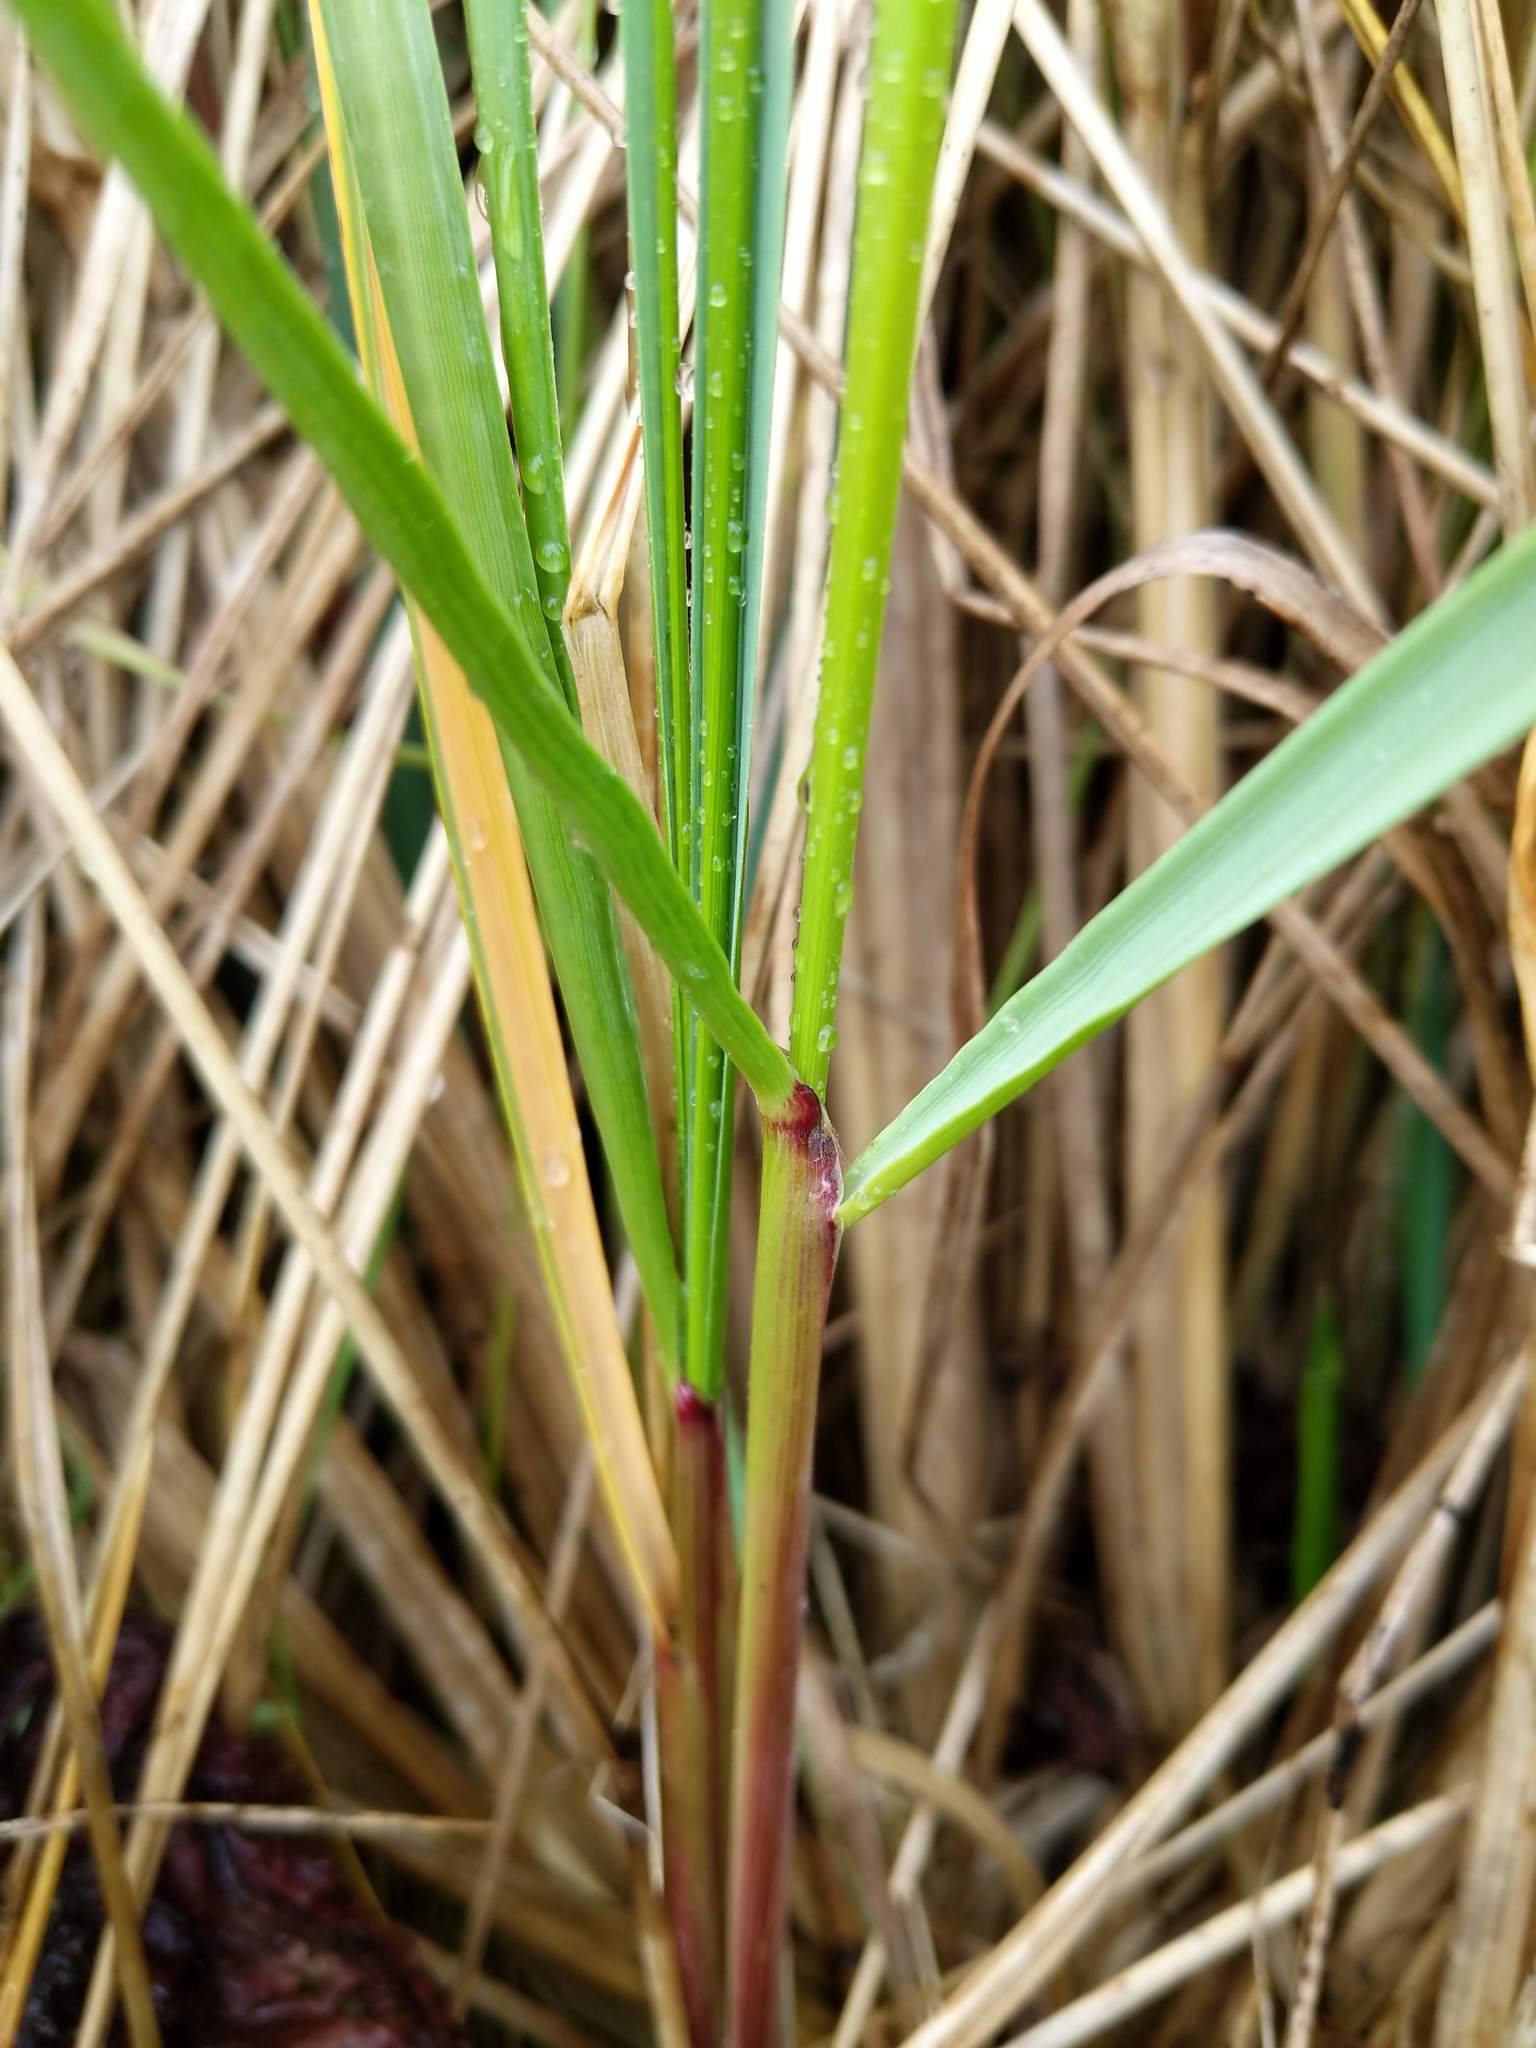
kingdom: Plantae
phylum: Tracheophyta
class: Liliopsida
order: Poales
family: Poaceae
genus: Calamagrostis
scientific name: Calamagrostis breviligulata
